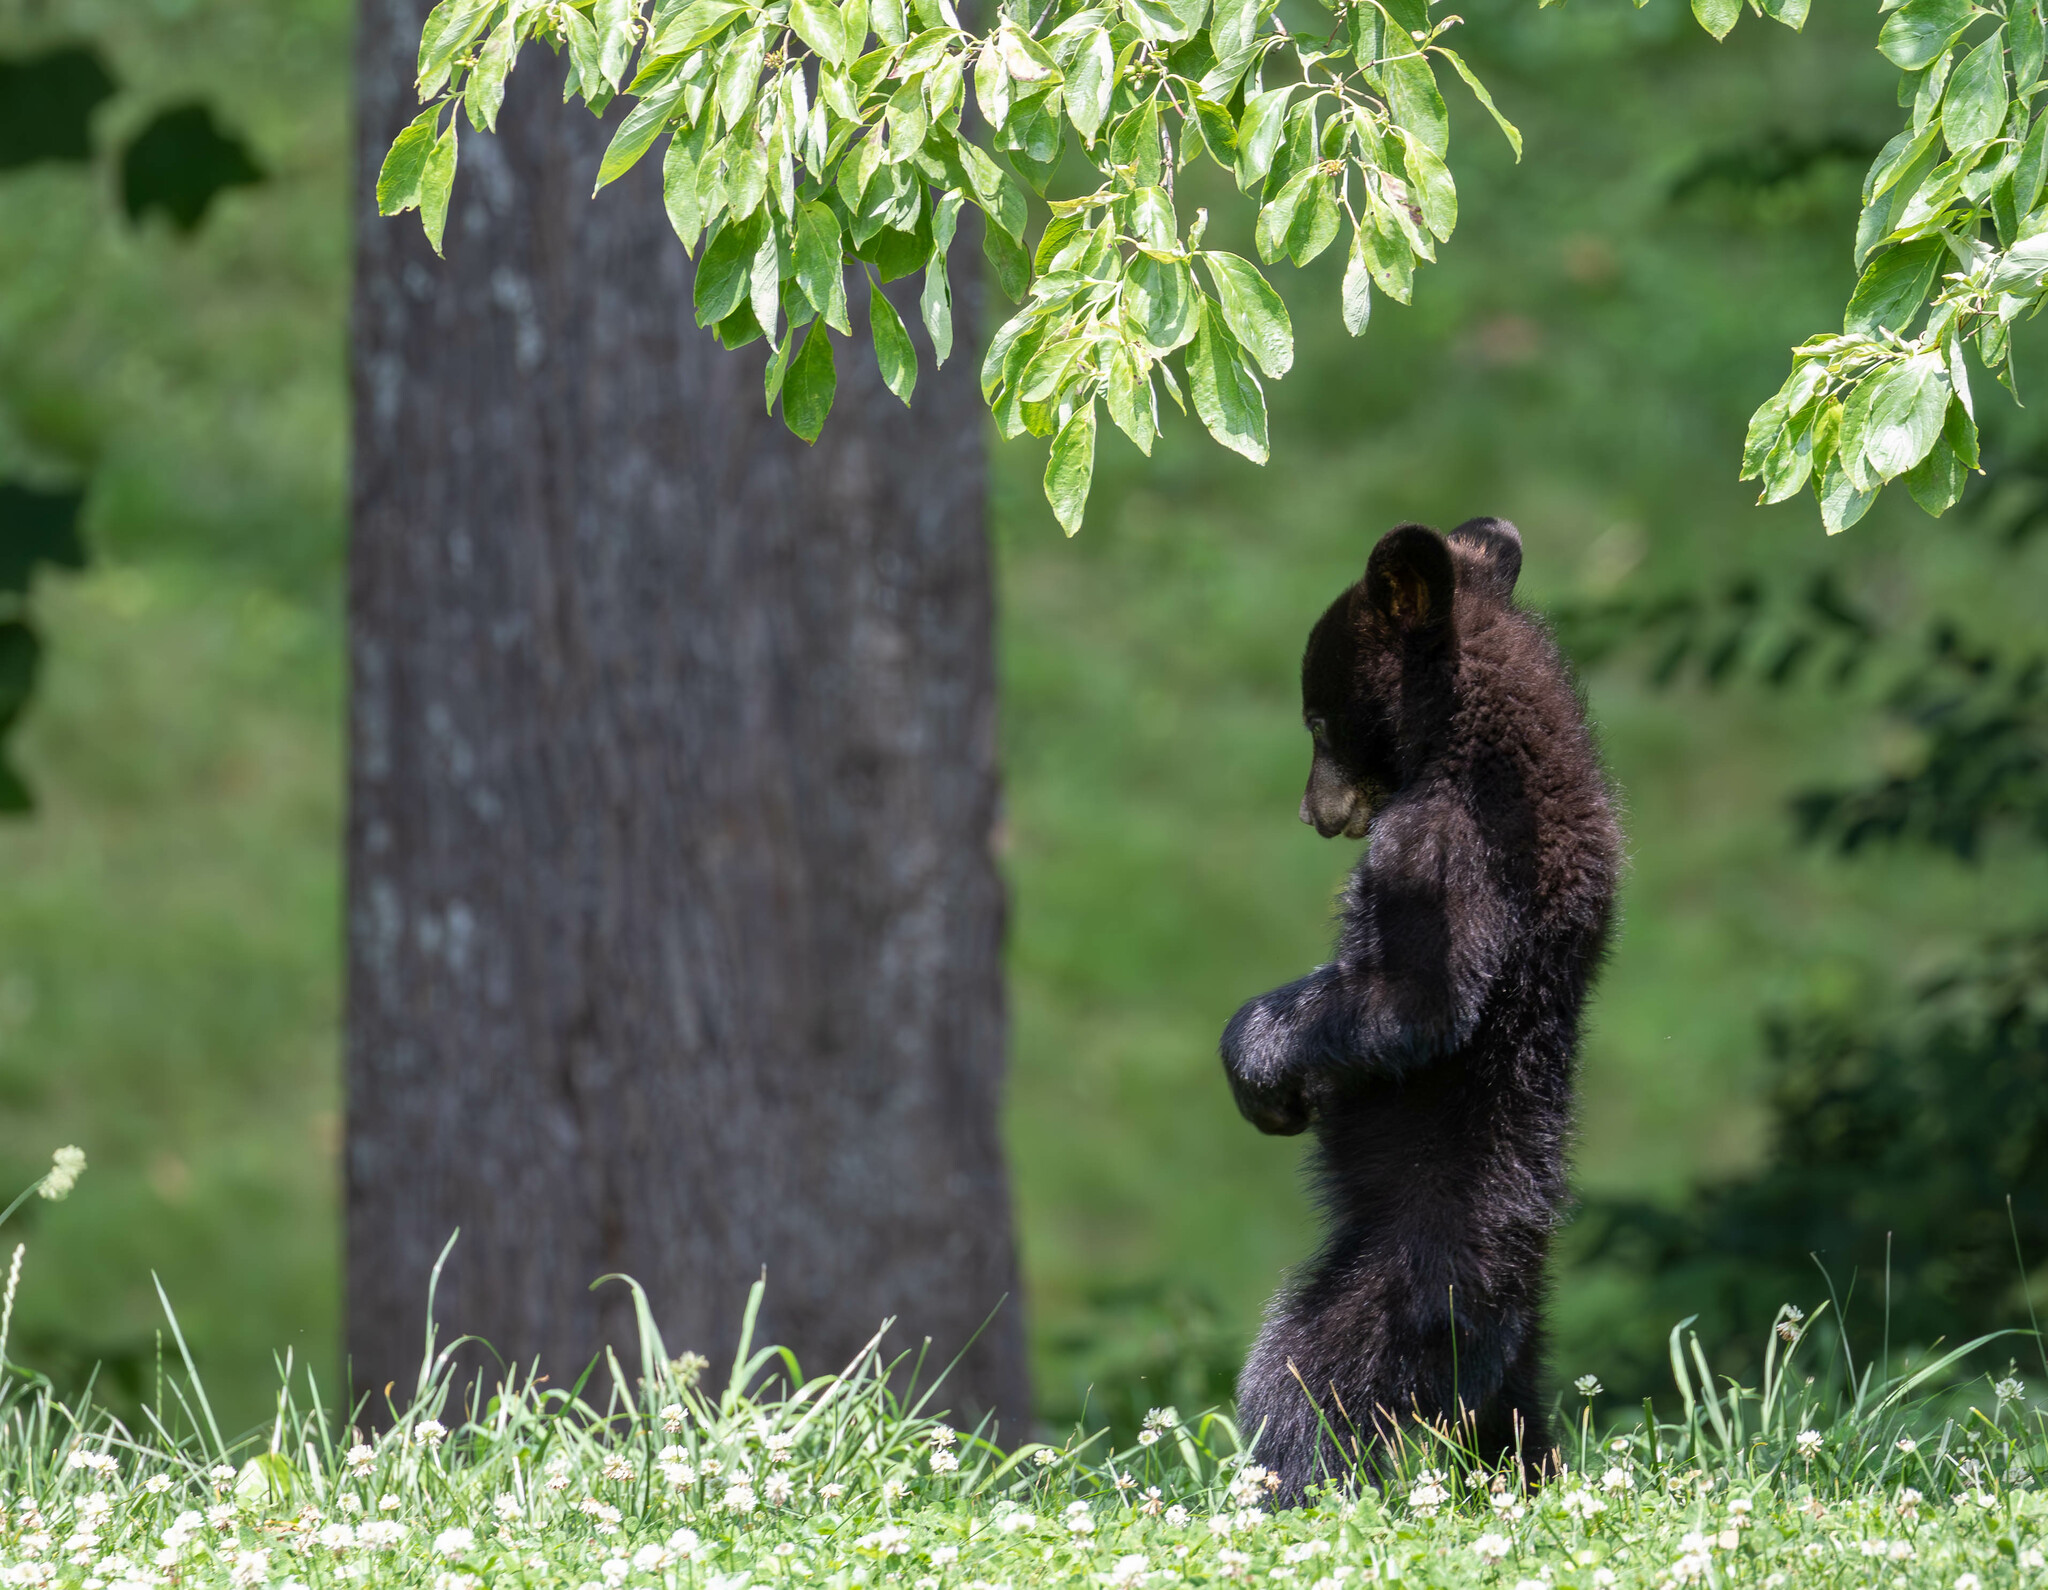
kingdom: Animalia
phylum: Chordata
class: Mammalia
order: Carnivora
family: Ursidae
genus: Ursus
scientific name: Ursus americanus
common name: American black bear
